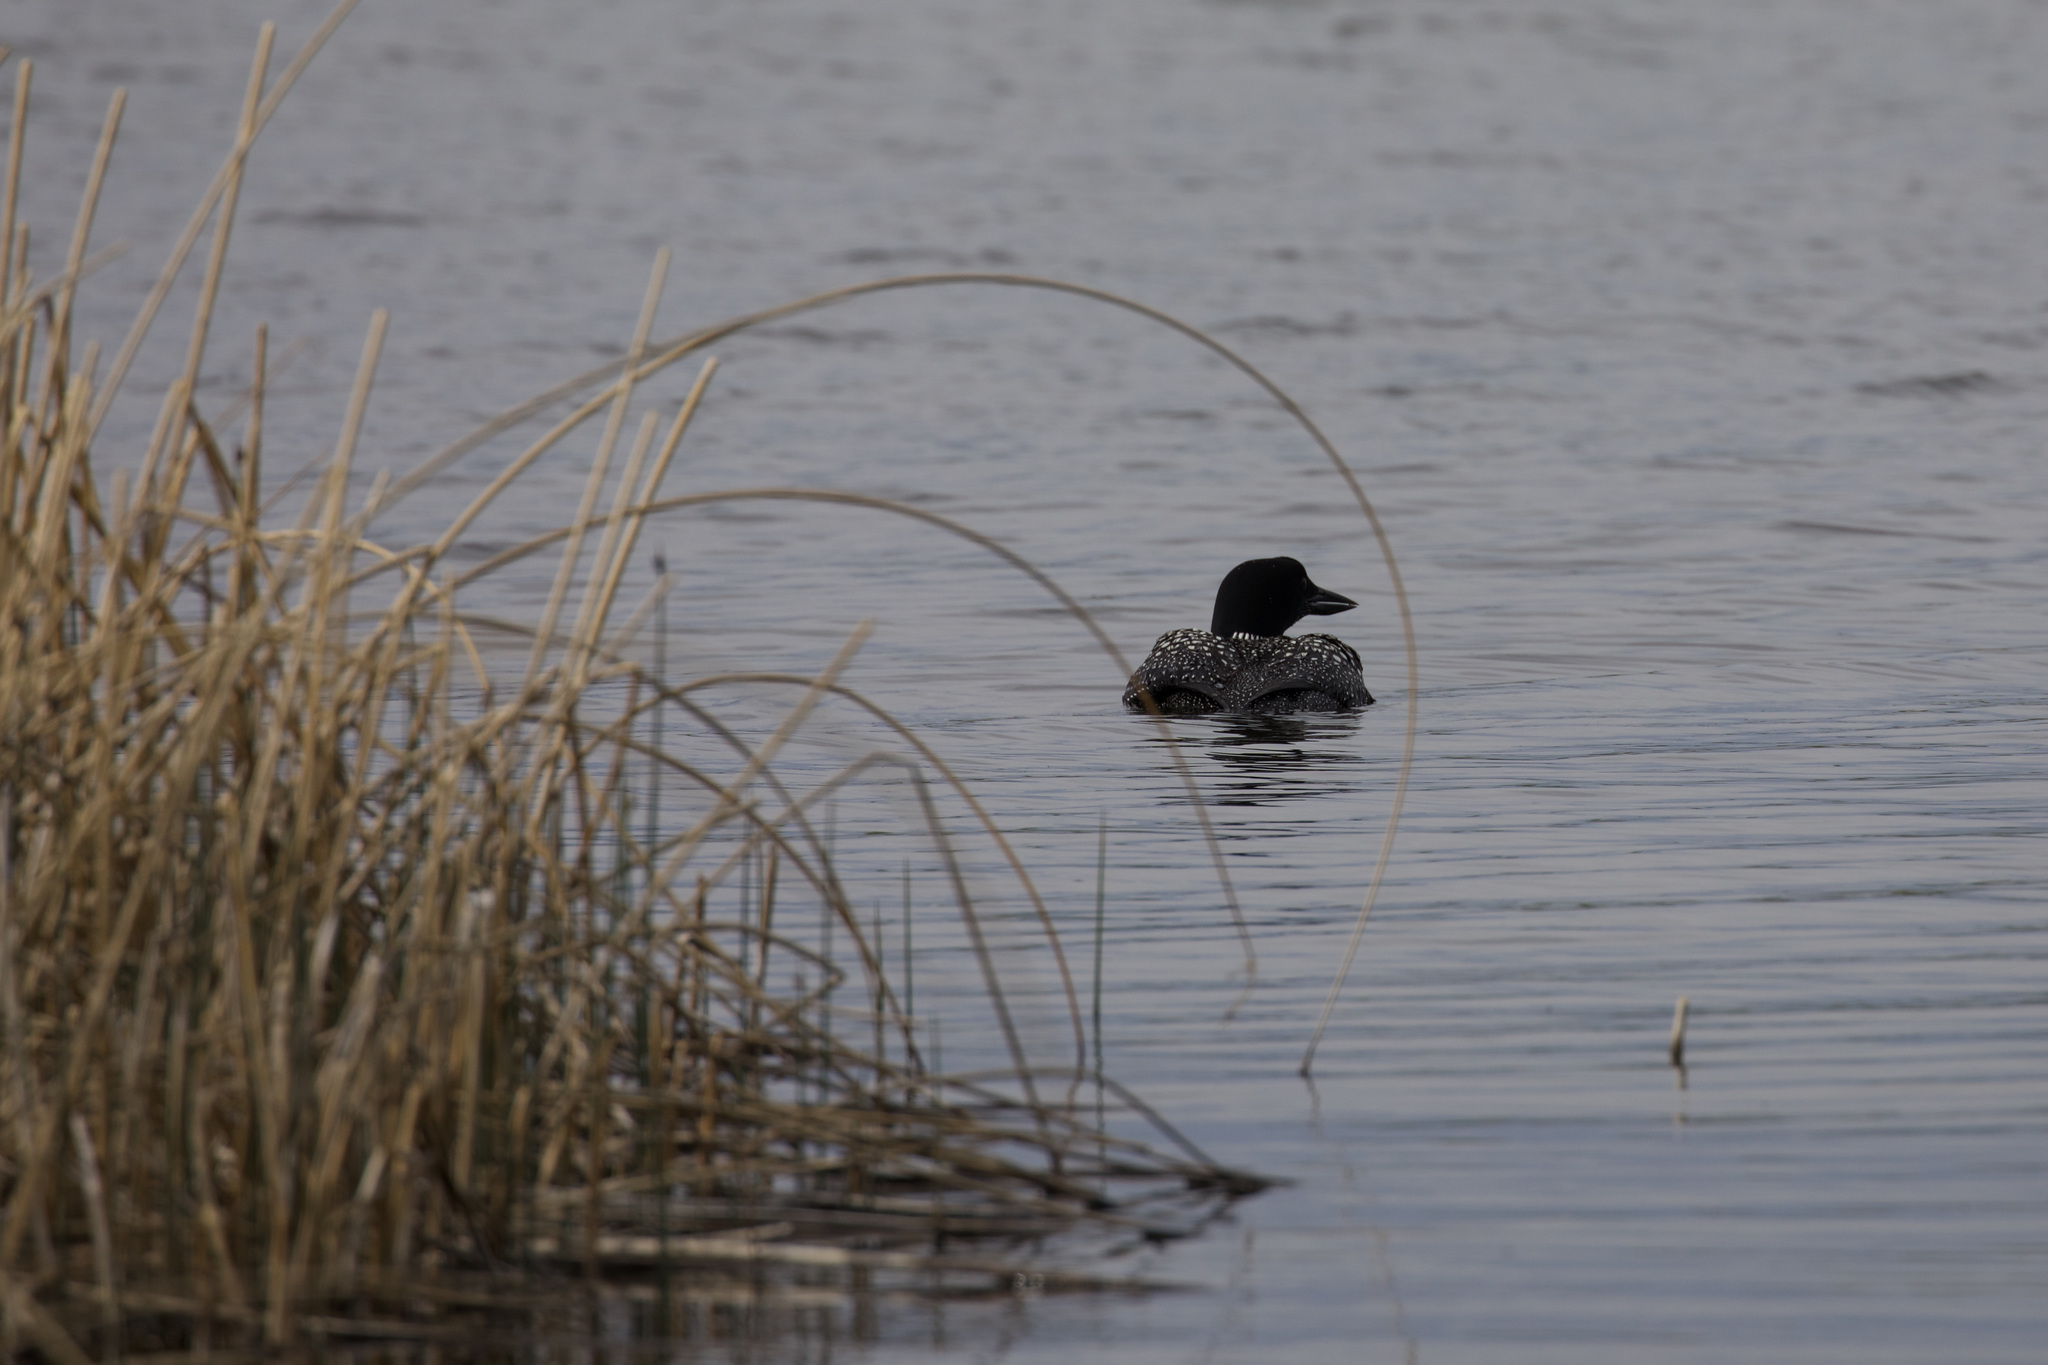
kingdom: Animalia
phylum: Chordata
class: Aves
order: Gaviiformes
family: Gaviidae
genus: Gavia
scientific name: Gavia immer
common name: Common loon
